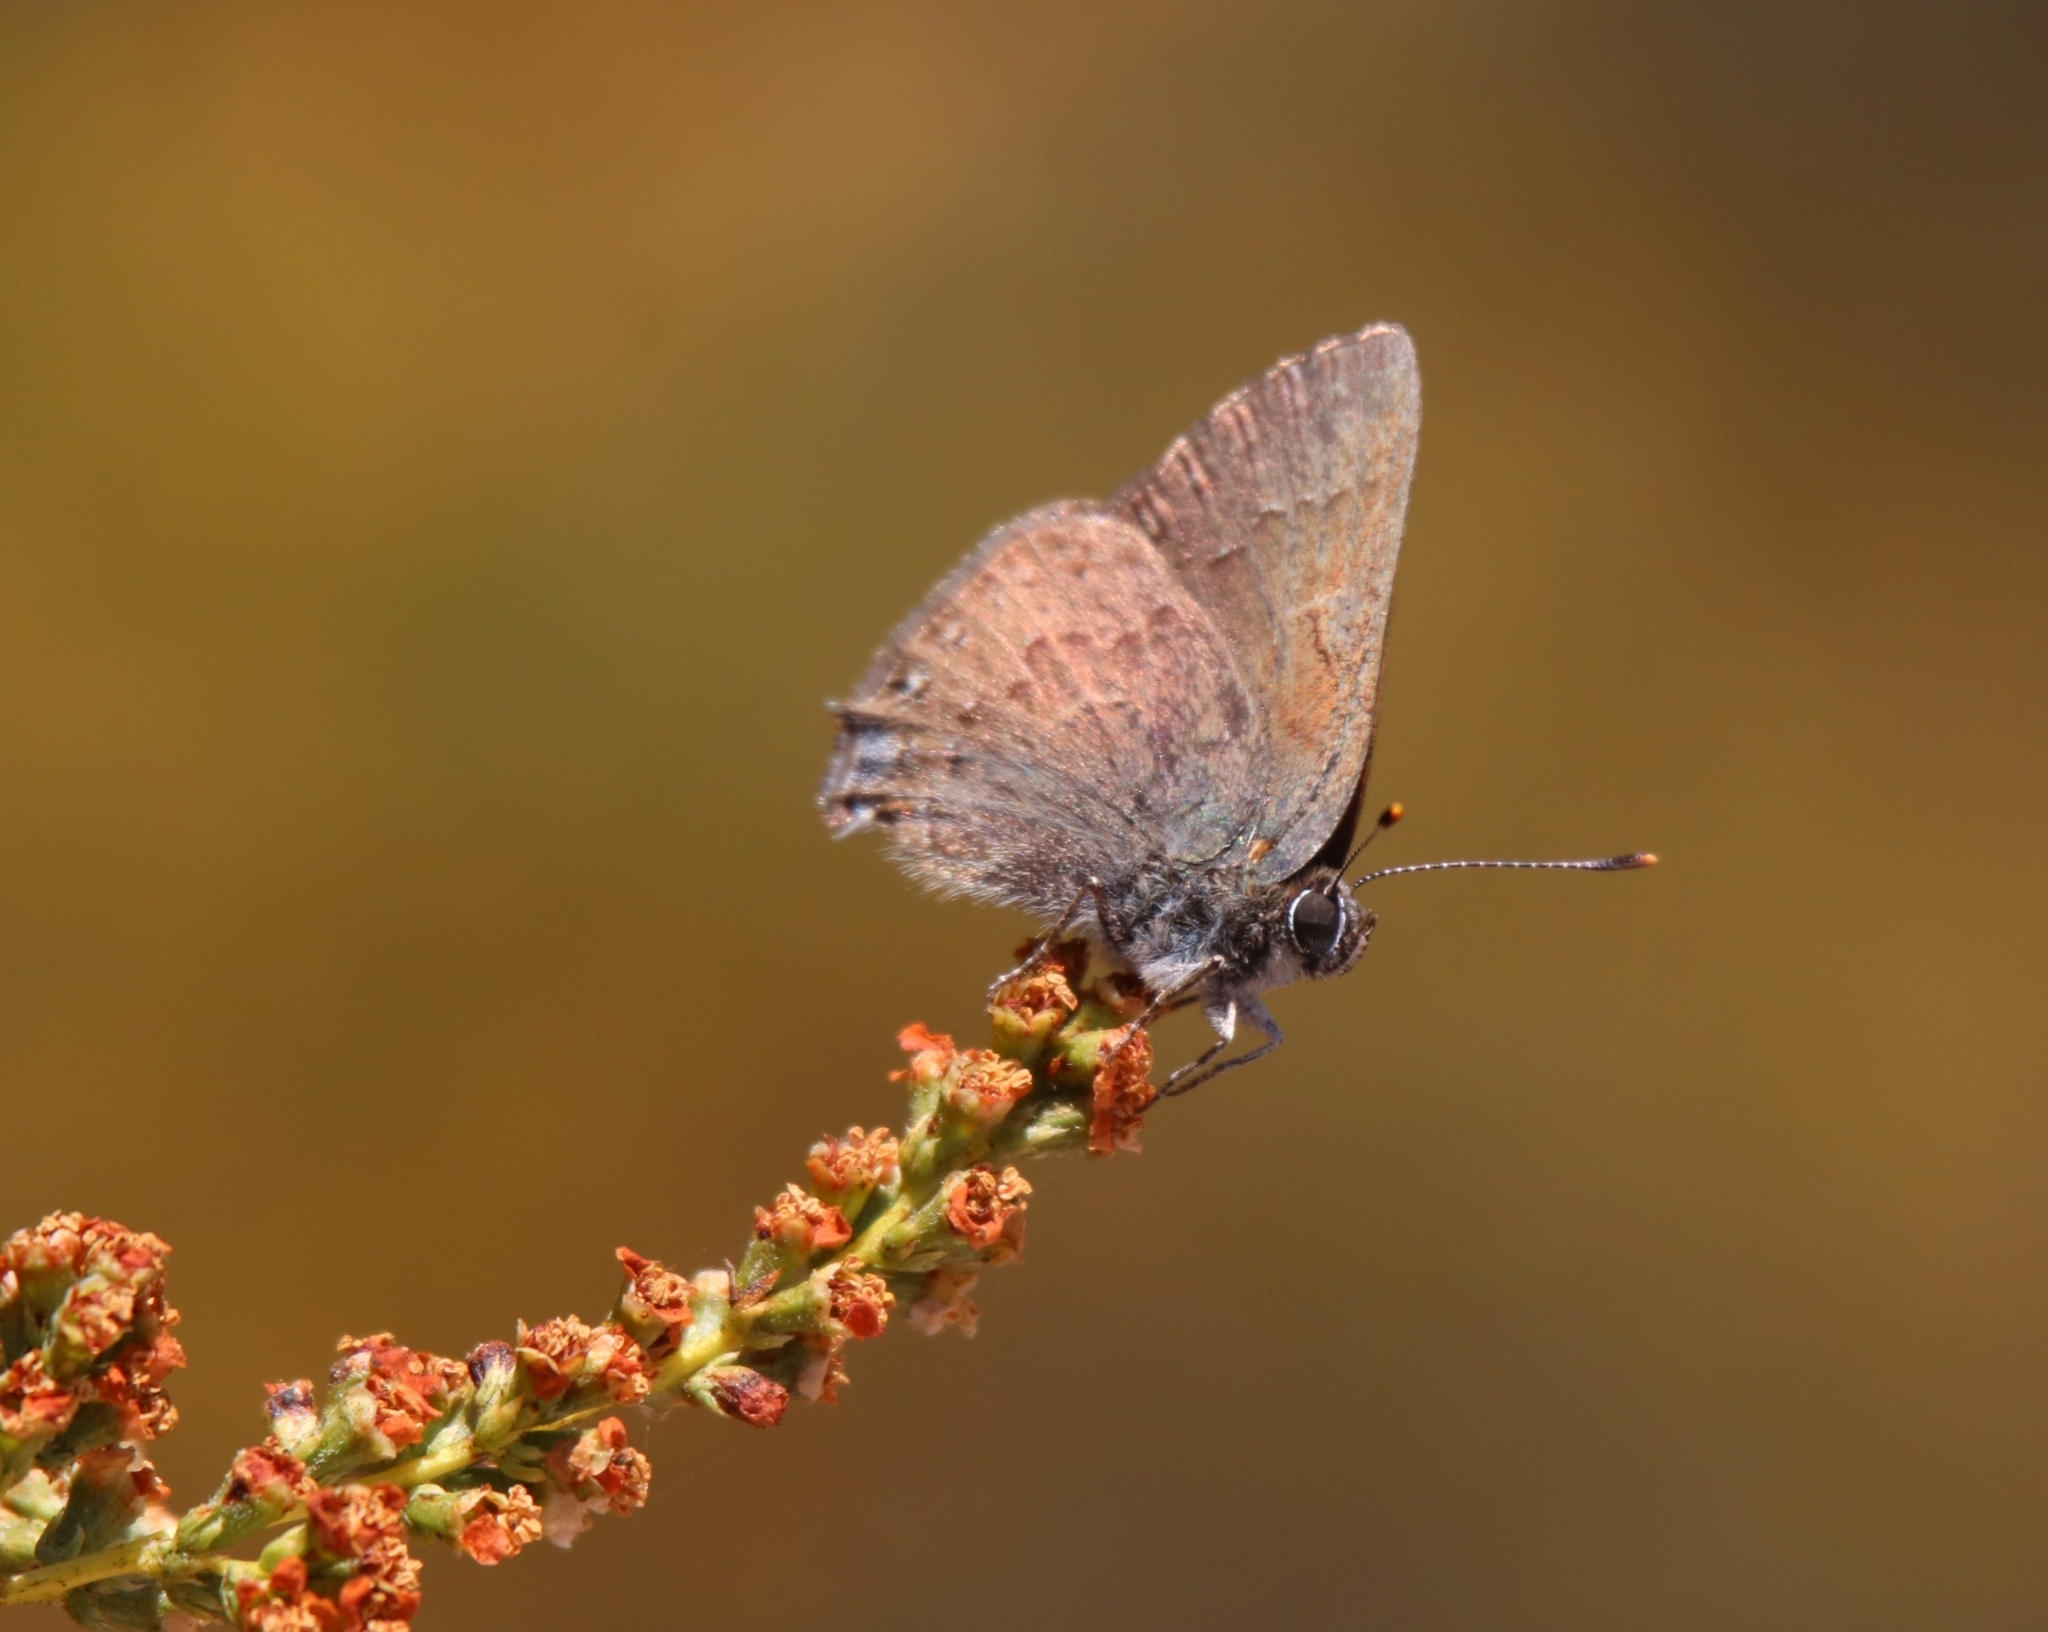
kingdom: Animalia
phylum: Arthropoda
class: Insecta
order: Lepidoptera
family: Lycaenidae
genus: Strymon
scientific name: Strymon saepium
